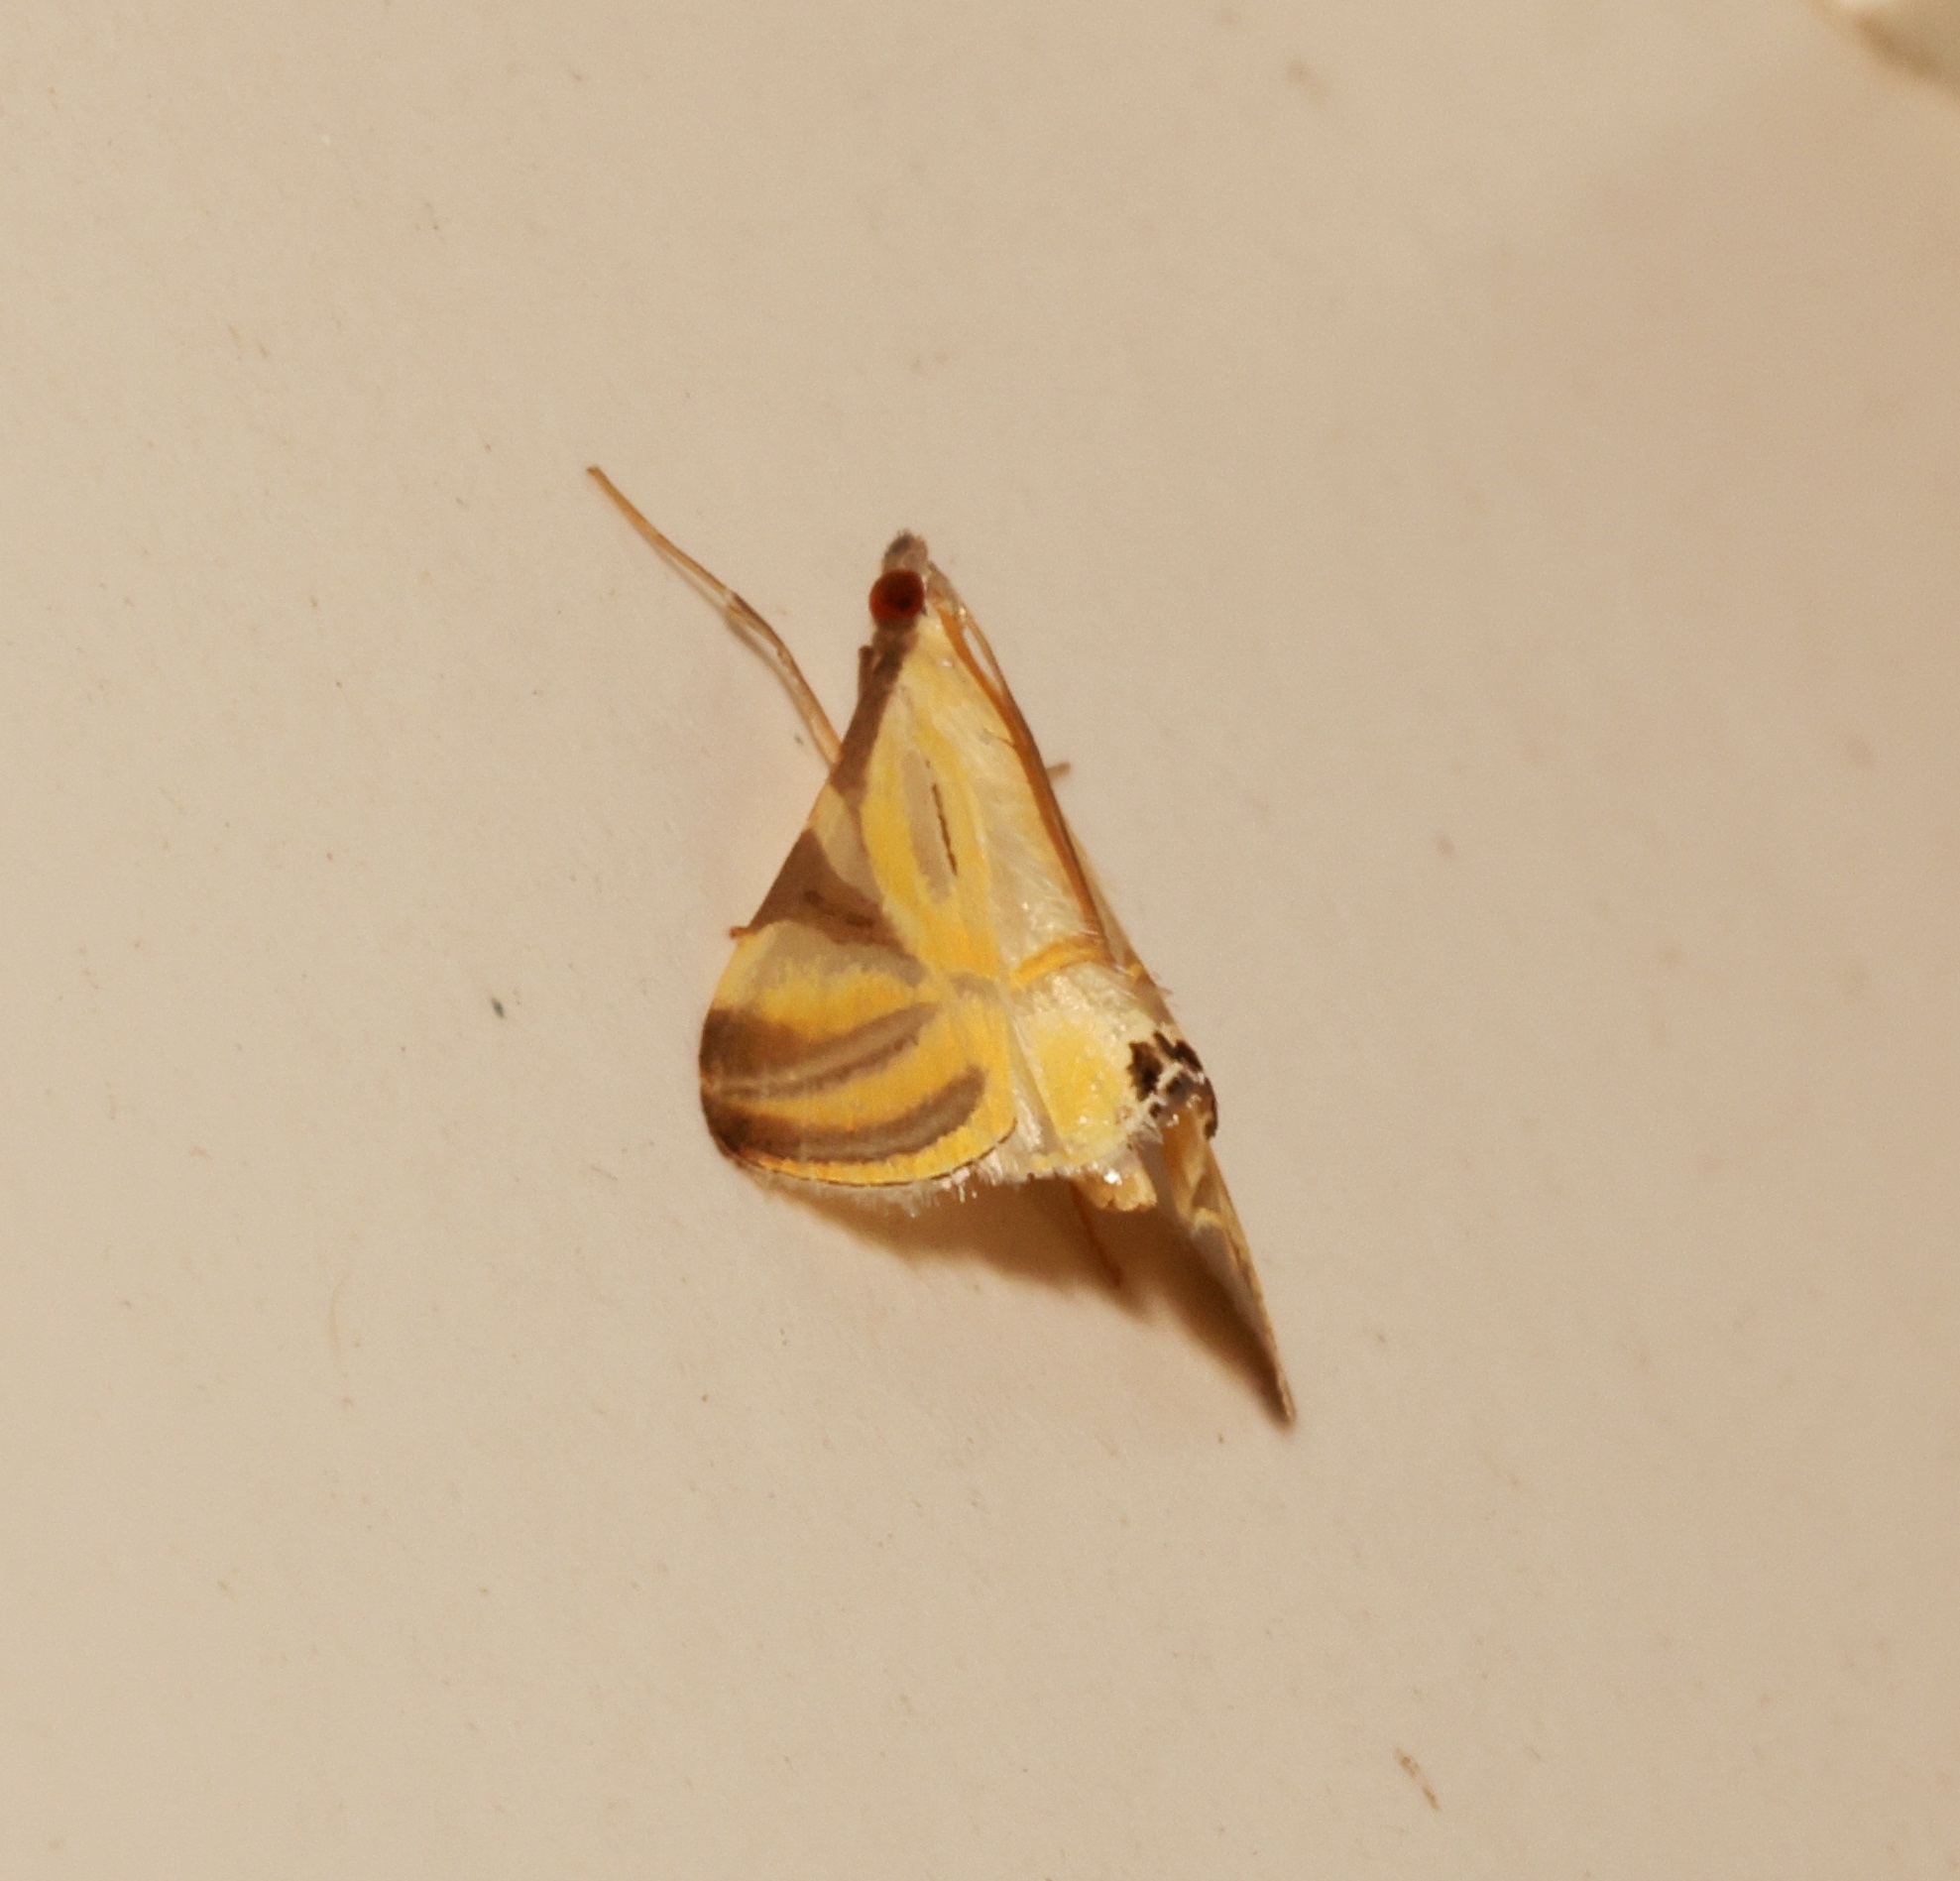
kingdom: Animalia
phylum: Arthropoda
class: Insecta
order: Lepidoptera
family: Crambidae
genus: Talanga
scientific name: Talanga sexpunctalis
